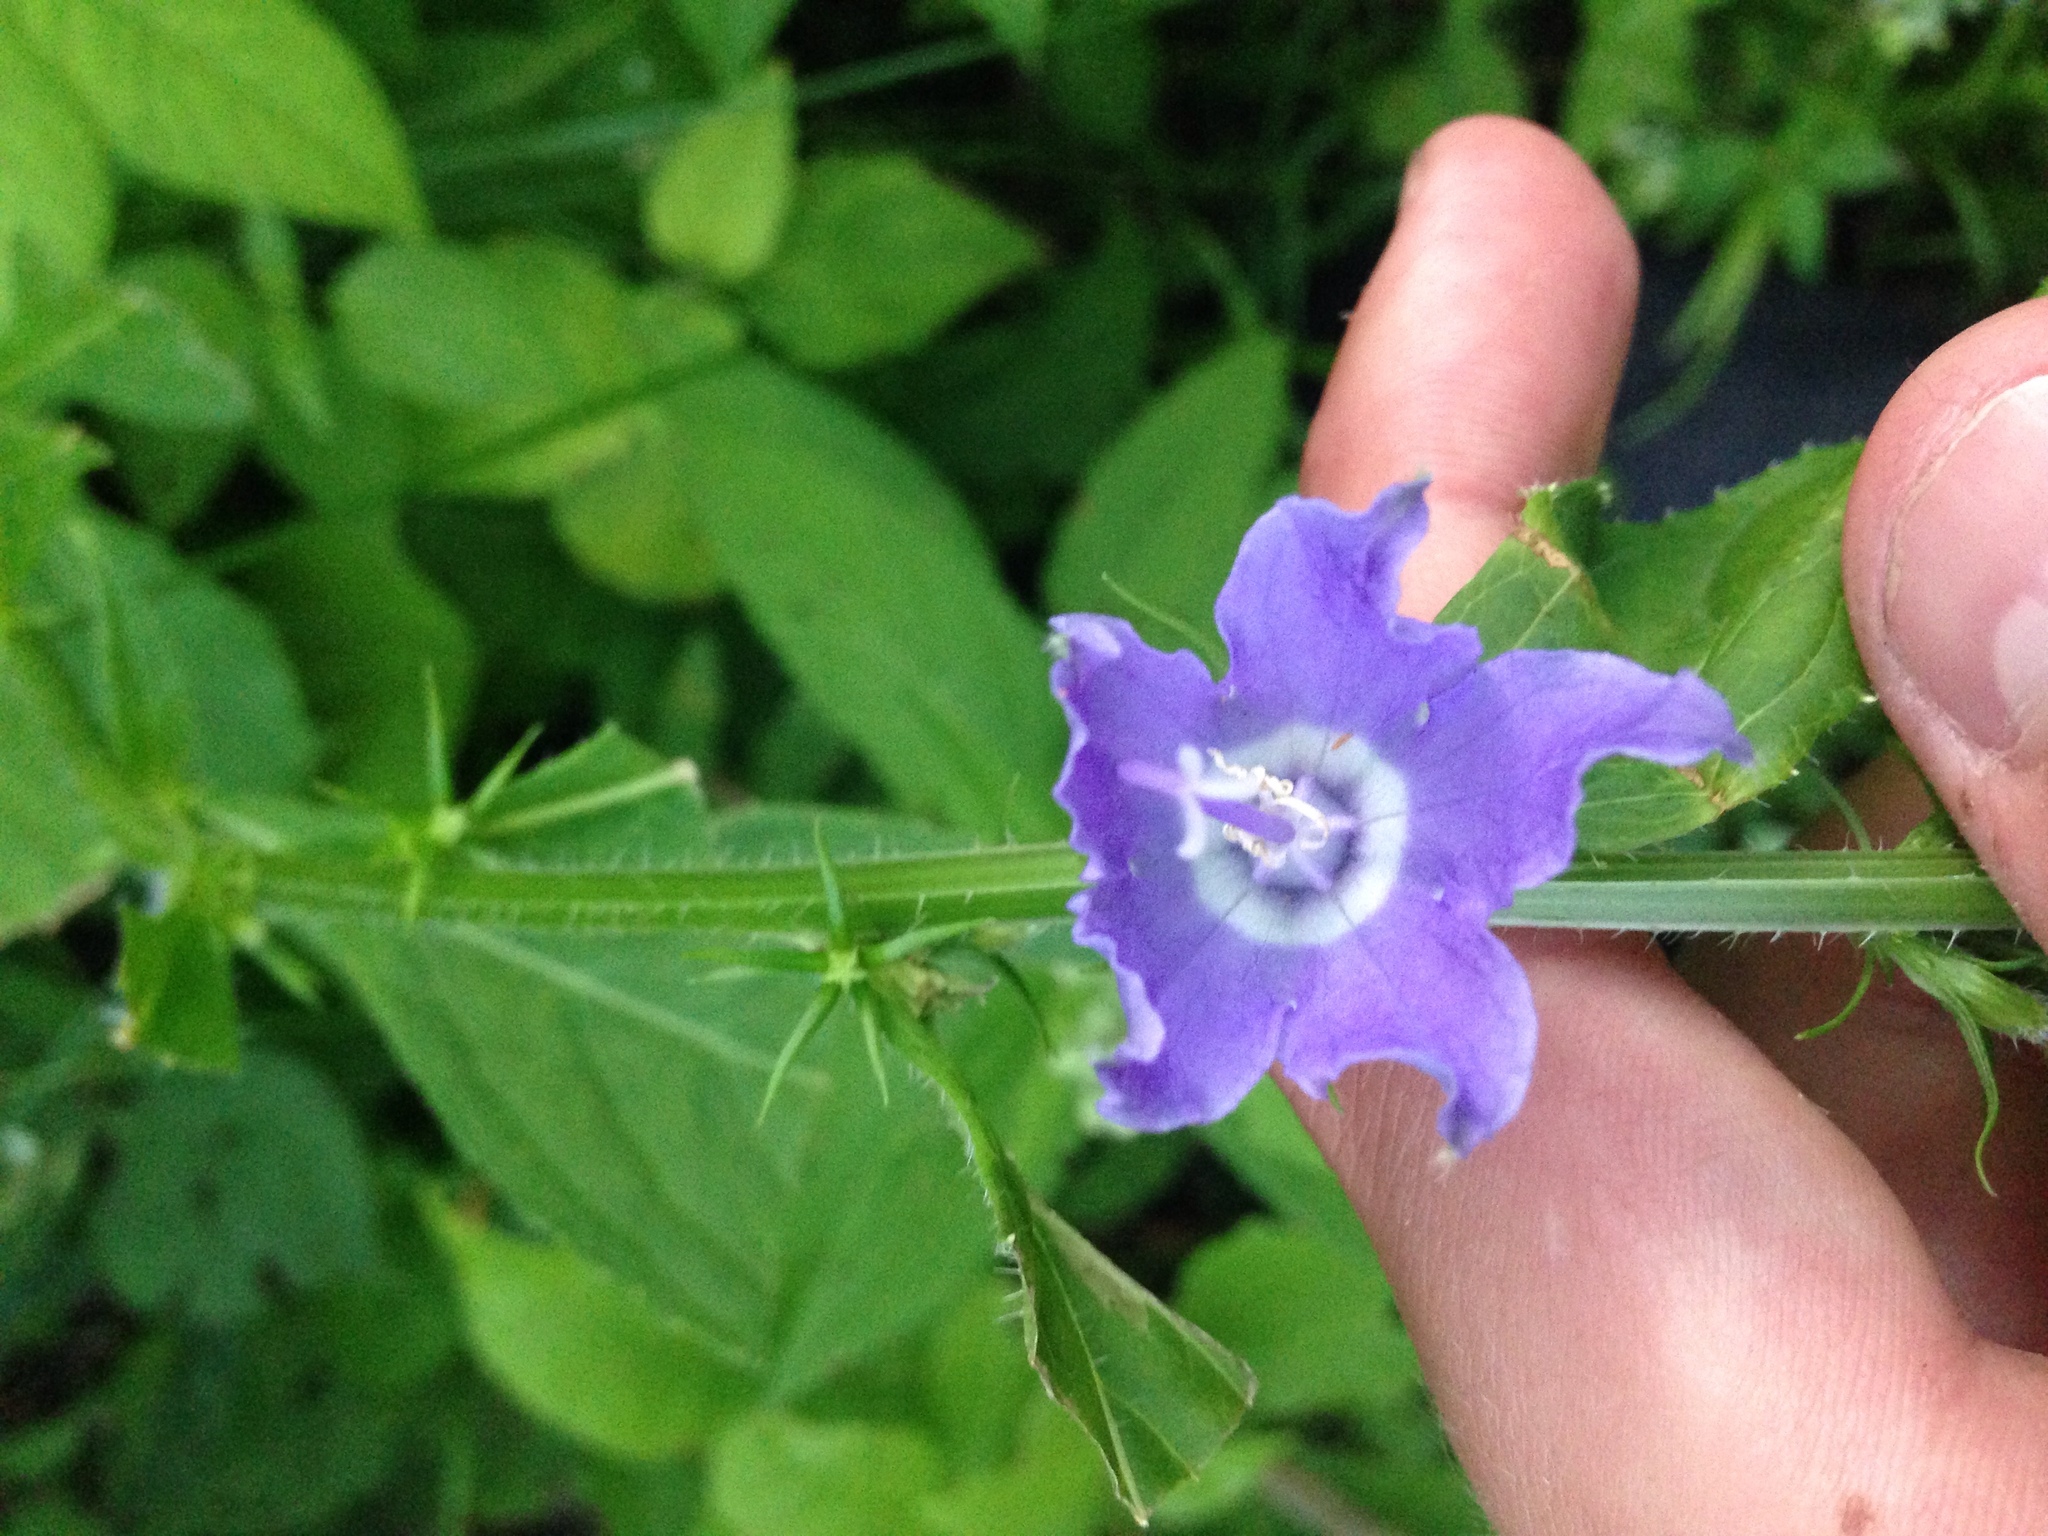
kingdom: Plantae
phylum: Tracheophyta
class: Magnoliopsida
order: Asterales
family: Campanulaceae
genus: Campanulastrum
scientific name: Campanulastrum americanum
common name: American bellflower
